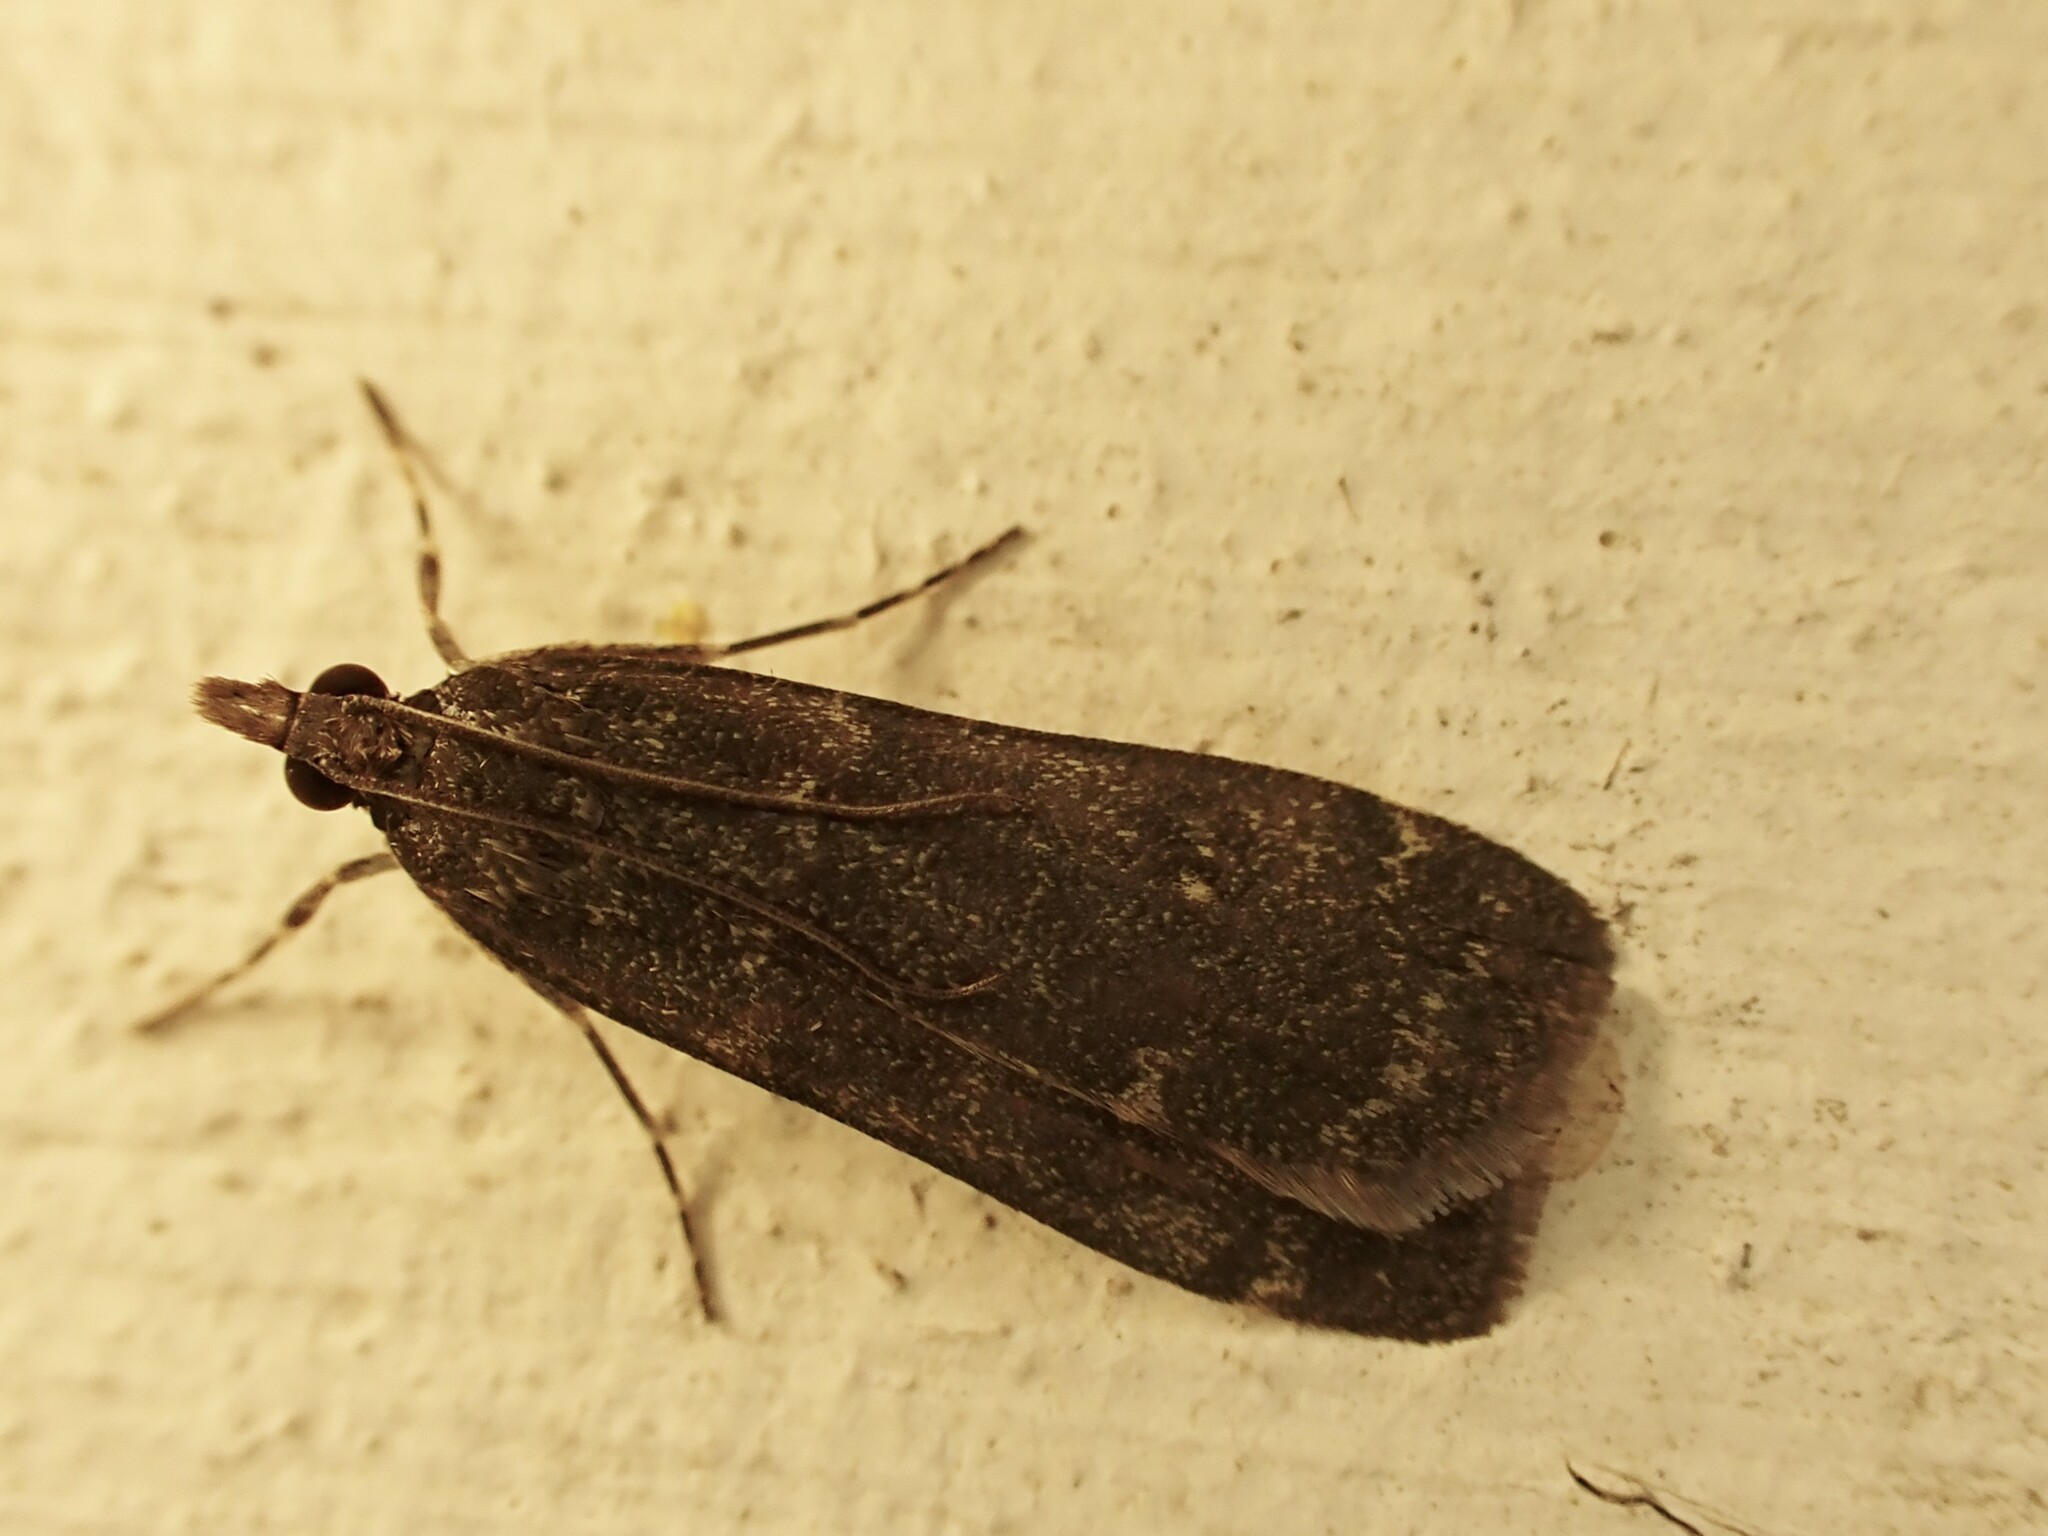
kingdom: Animalia
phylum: Arthropoda
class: Insecta
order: Lepidoptera
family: Crambidae
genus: Eudonia
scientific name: Eudonia cataxesta
